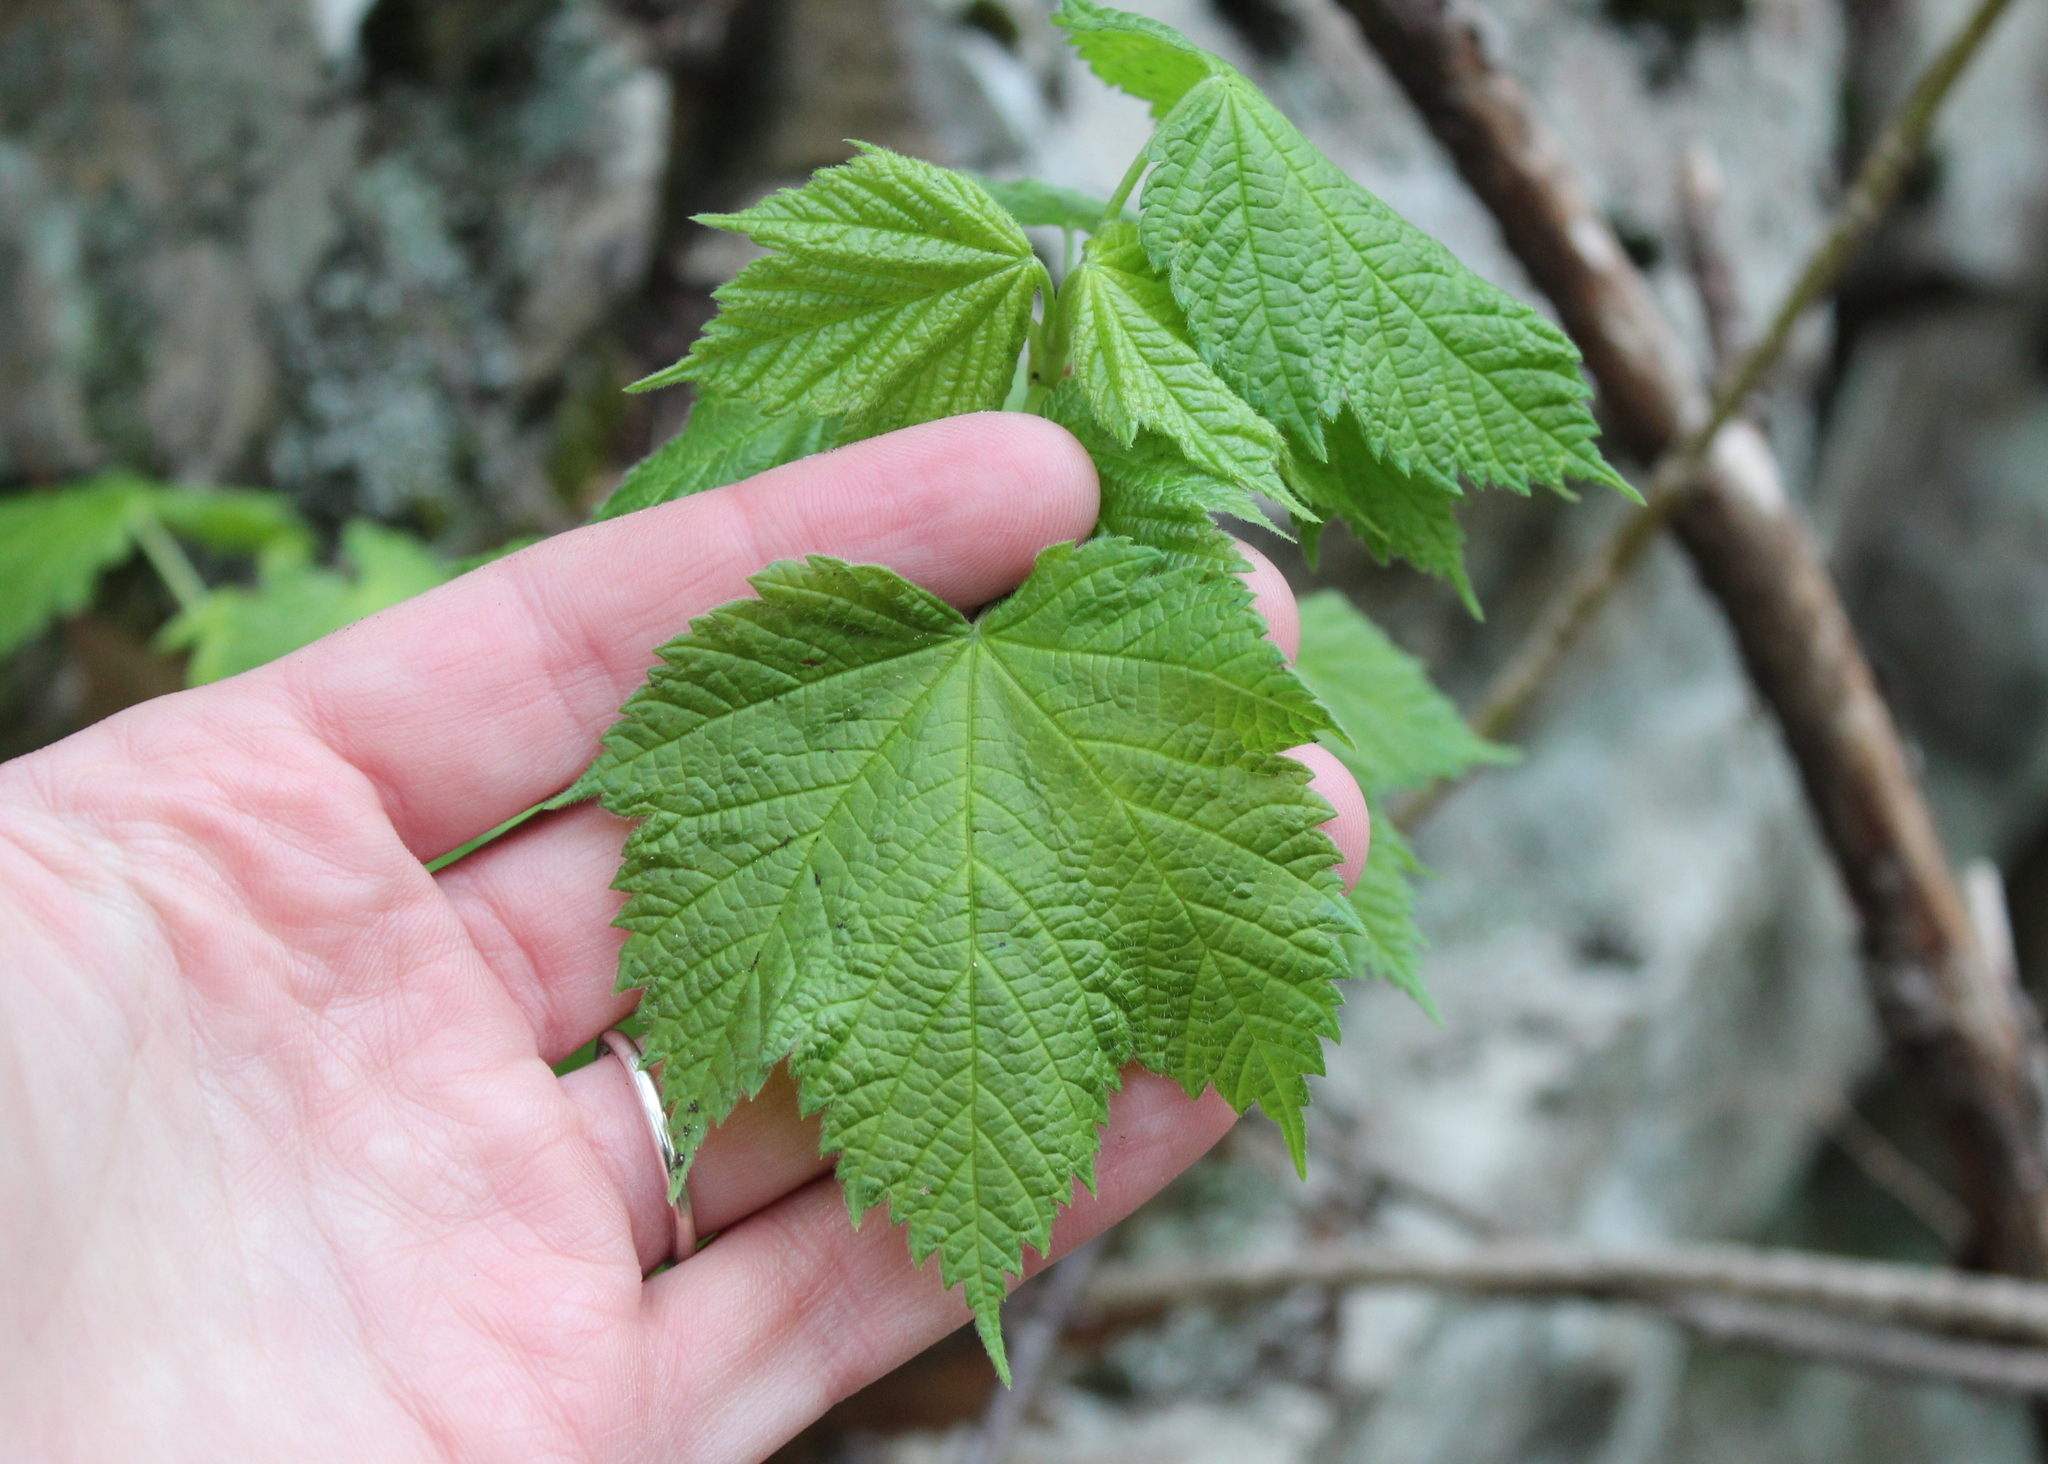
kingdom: Plantae
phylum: Tracheophyta
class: Magnoliopsida
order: Sapindales
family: Sapindaceae
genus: Acer
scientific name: Acer spicatum
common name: Mountain maple
